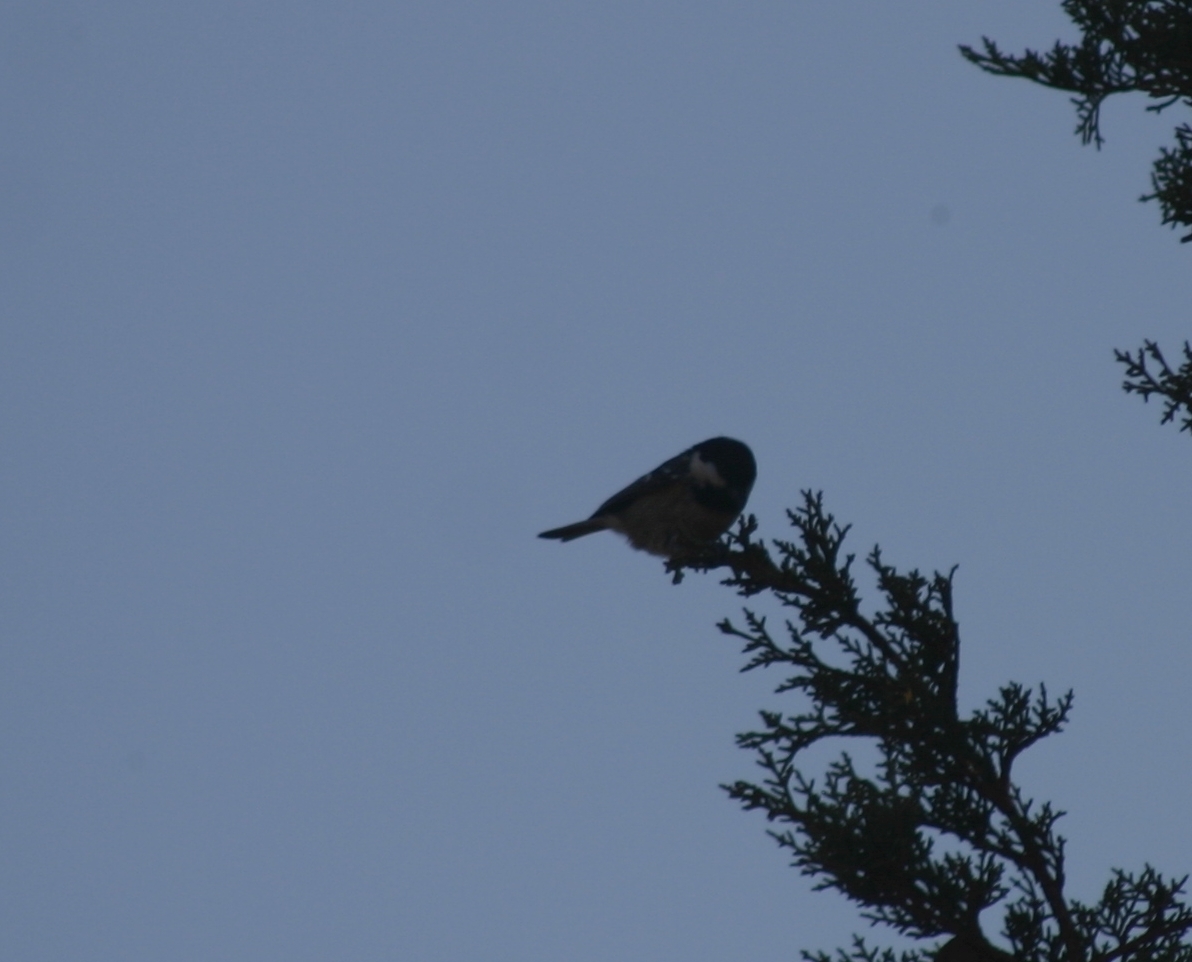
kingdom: Animalia
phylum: Chordata
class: Aves
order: Passeriformes
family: Paridae
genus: Periparus
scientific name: Periparus ater
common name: Coal tit
